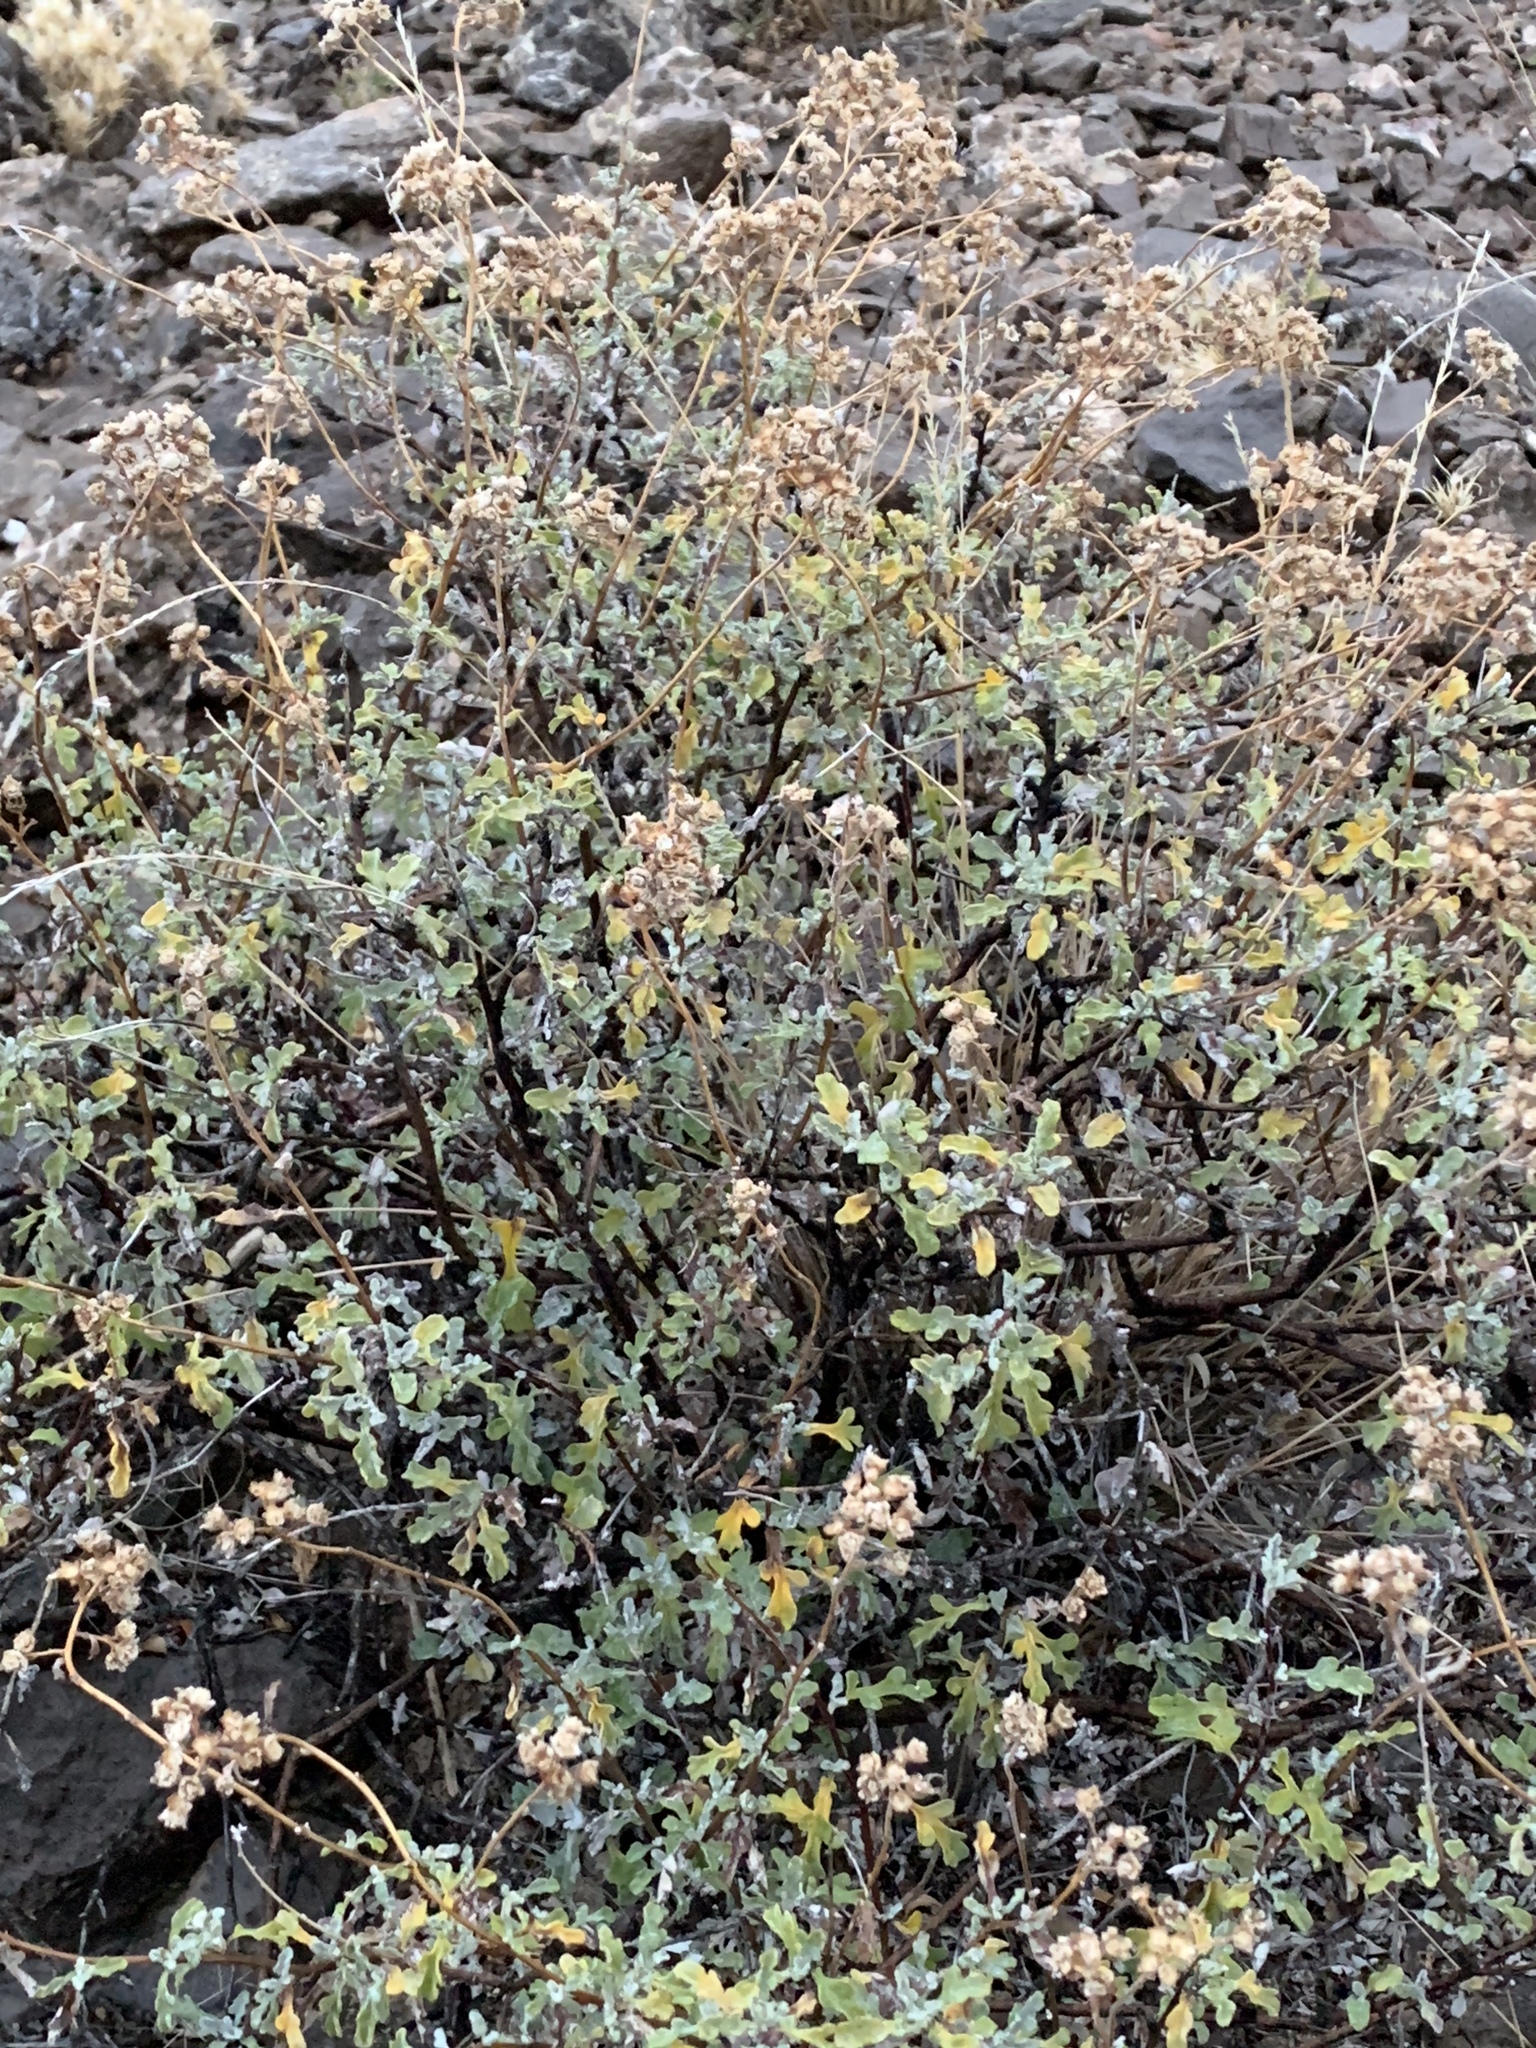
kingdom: Plantae
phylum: Tracheophyta
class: Magnoliopsida
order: Asterales
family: Asteraceae
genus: Parthenium
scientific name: Parthenium incanum
